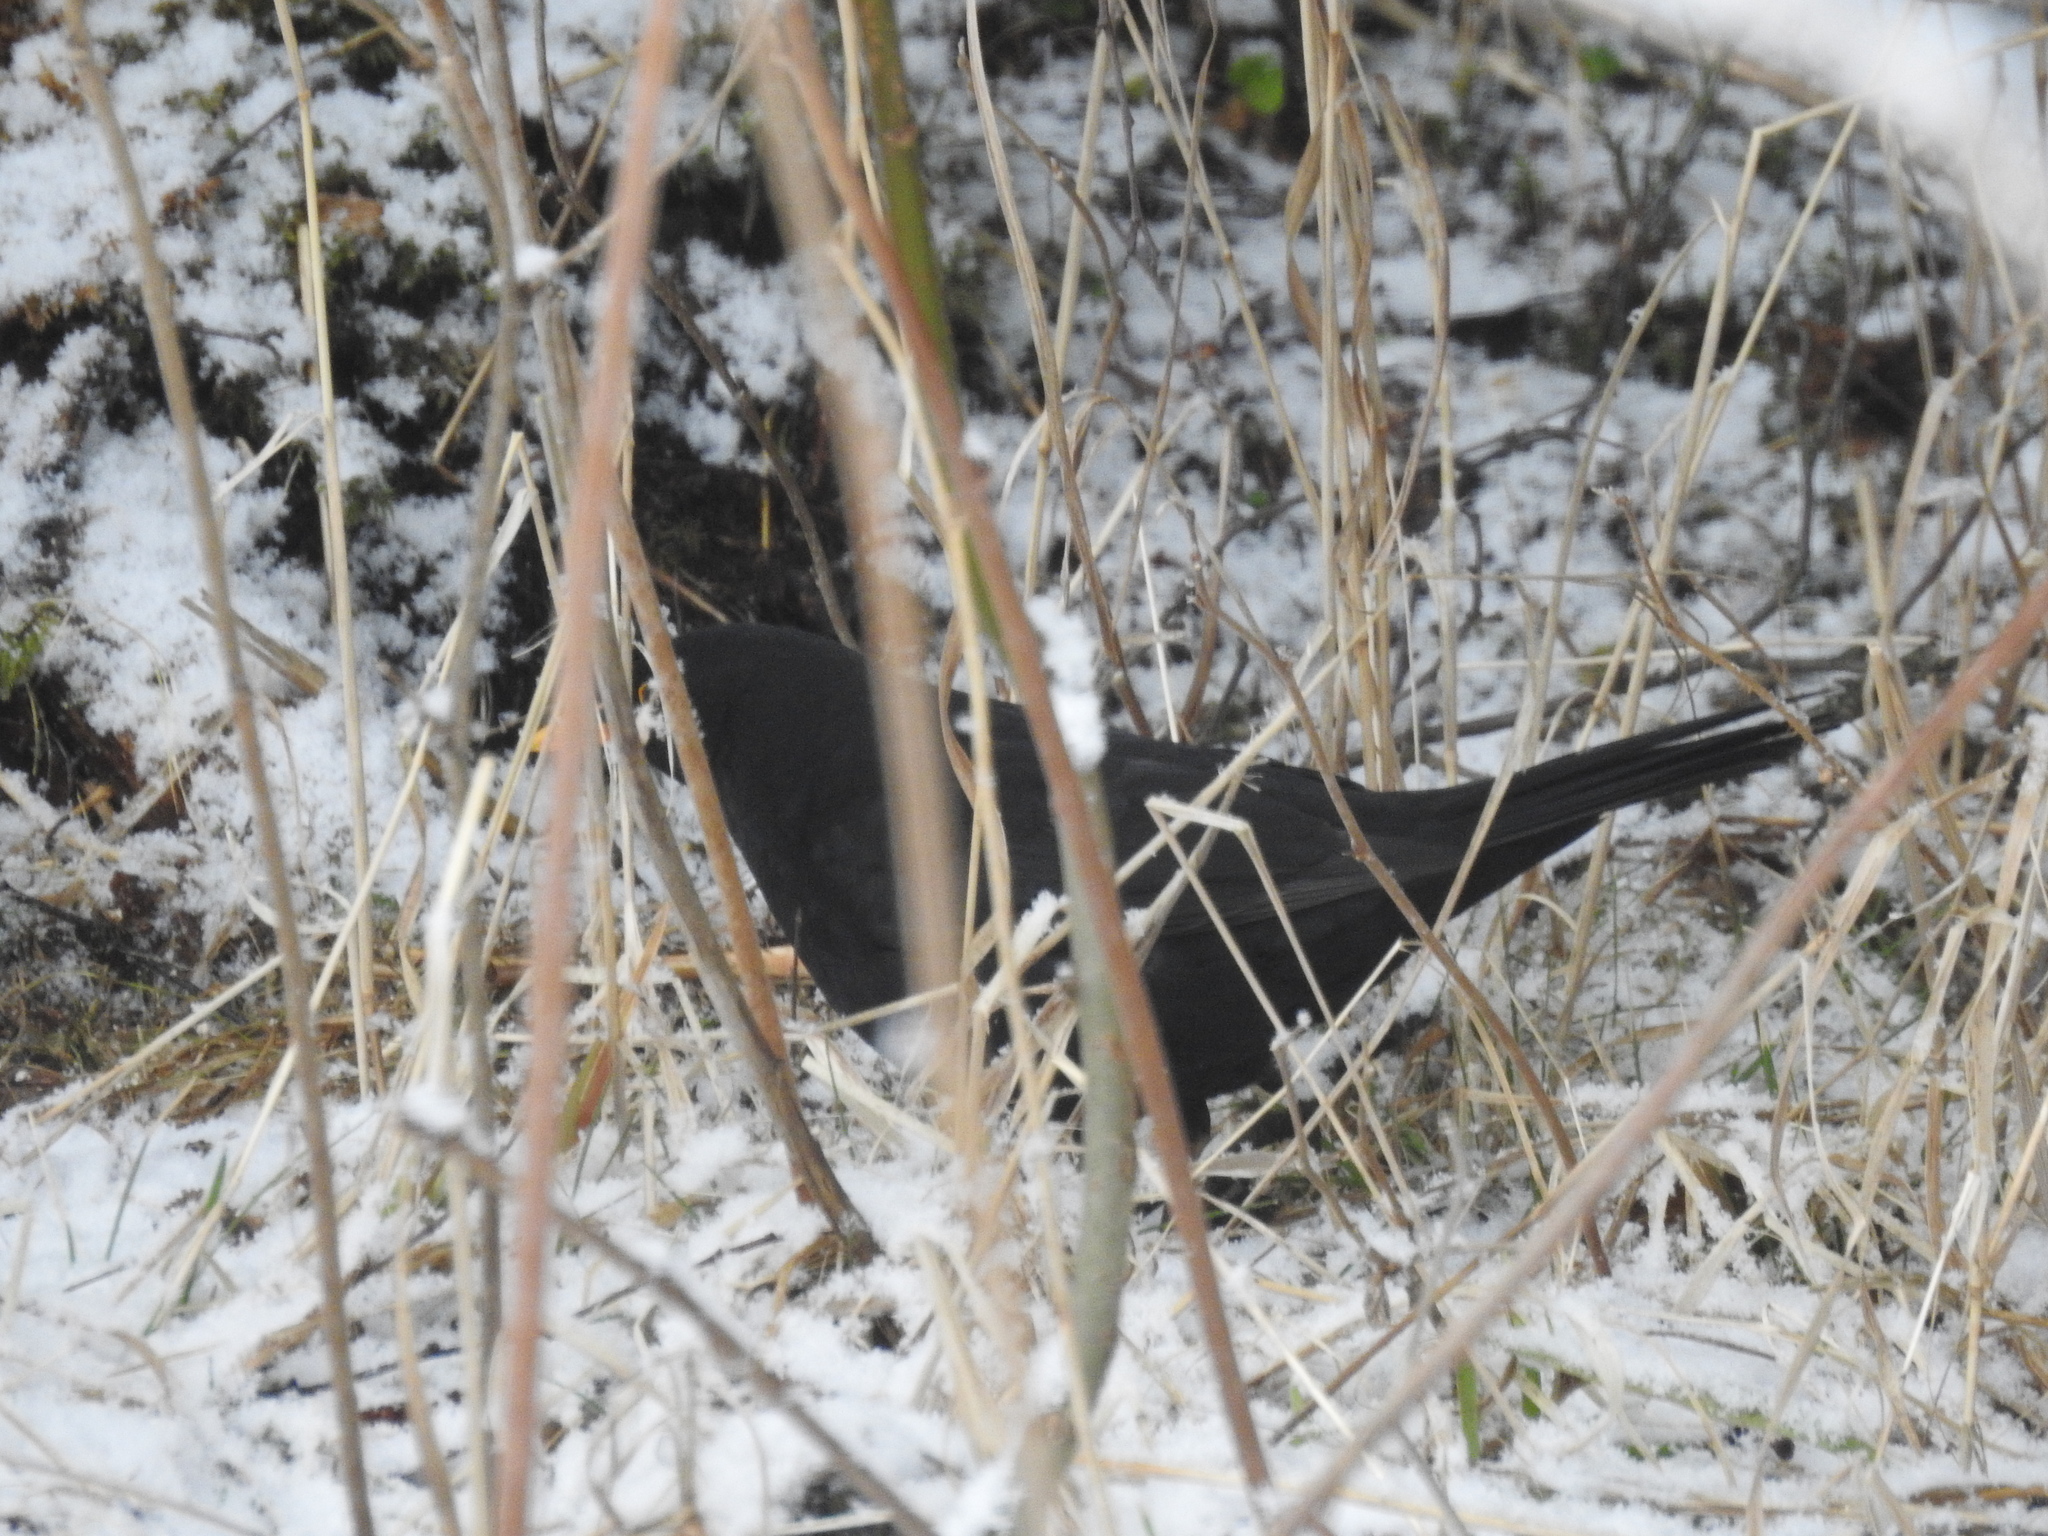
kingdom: Animalia
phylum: Chordata
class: Aves
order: Passeriformes
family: Turdidae
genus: Turdus
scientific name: Turdus merula
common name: Common blackbird
